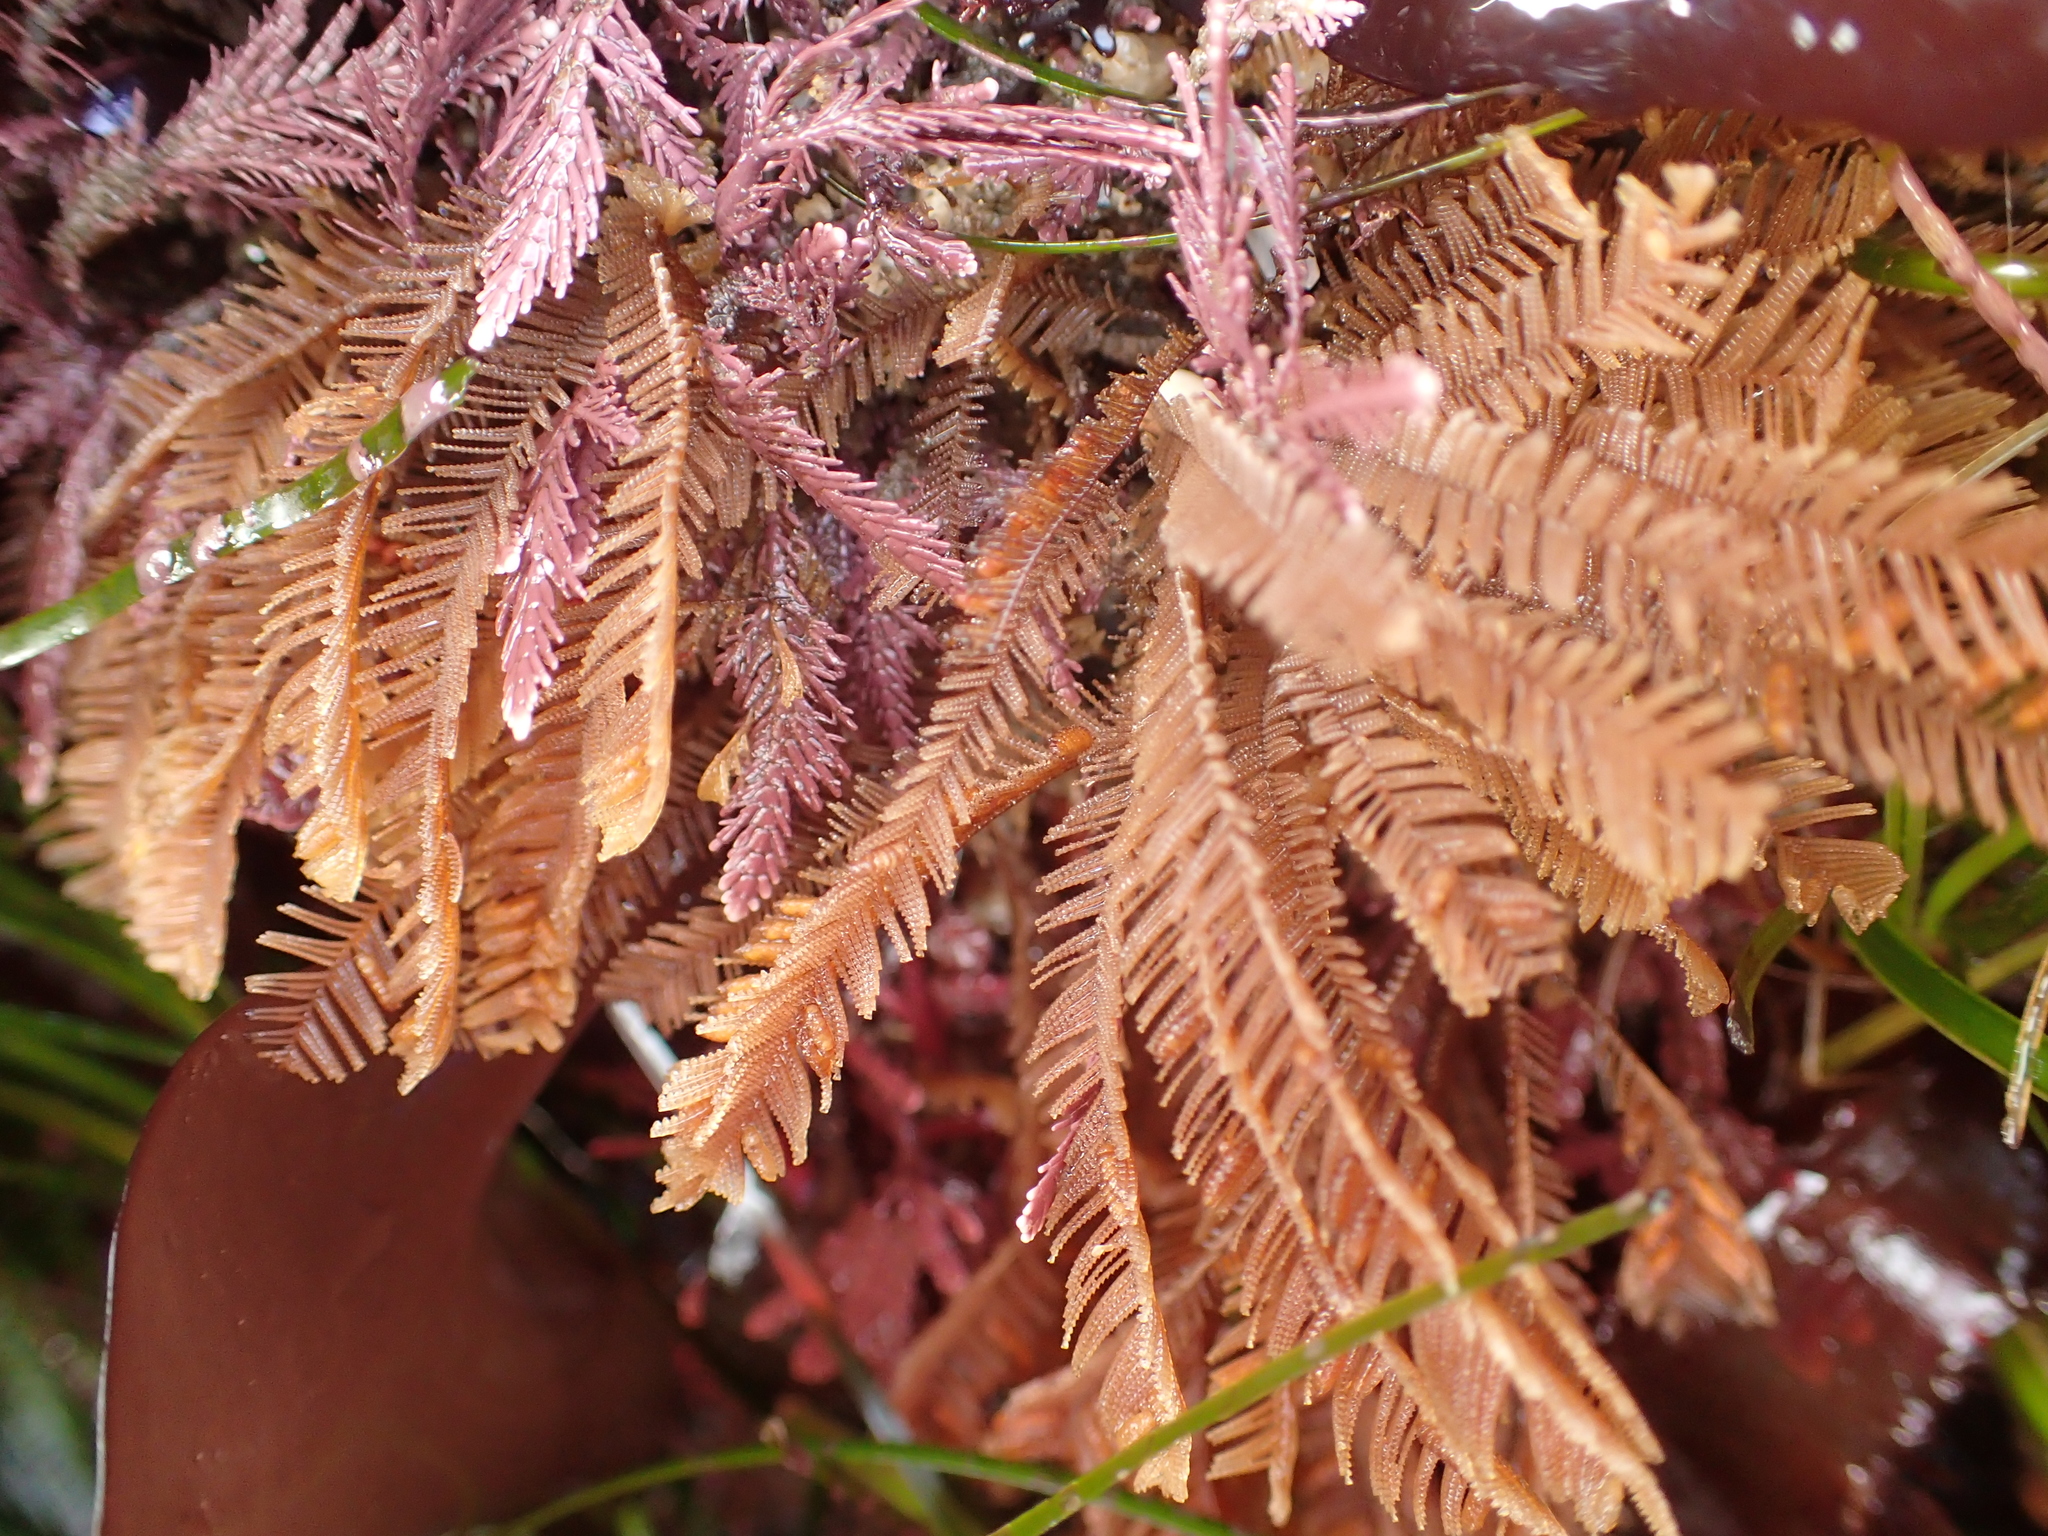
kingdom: Animalia
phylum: Cnidaria
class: Hydrozoa
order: Leptothecata
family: Aglaopheniidae
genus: Aglaophenia
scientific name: Aglaophenia struthionides
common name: Ostrichplume hydroid
